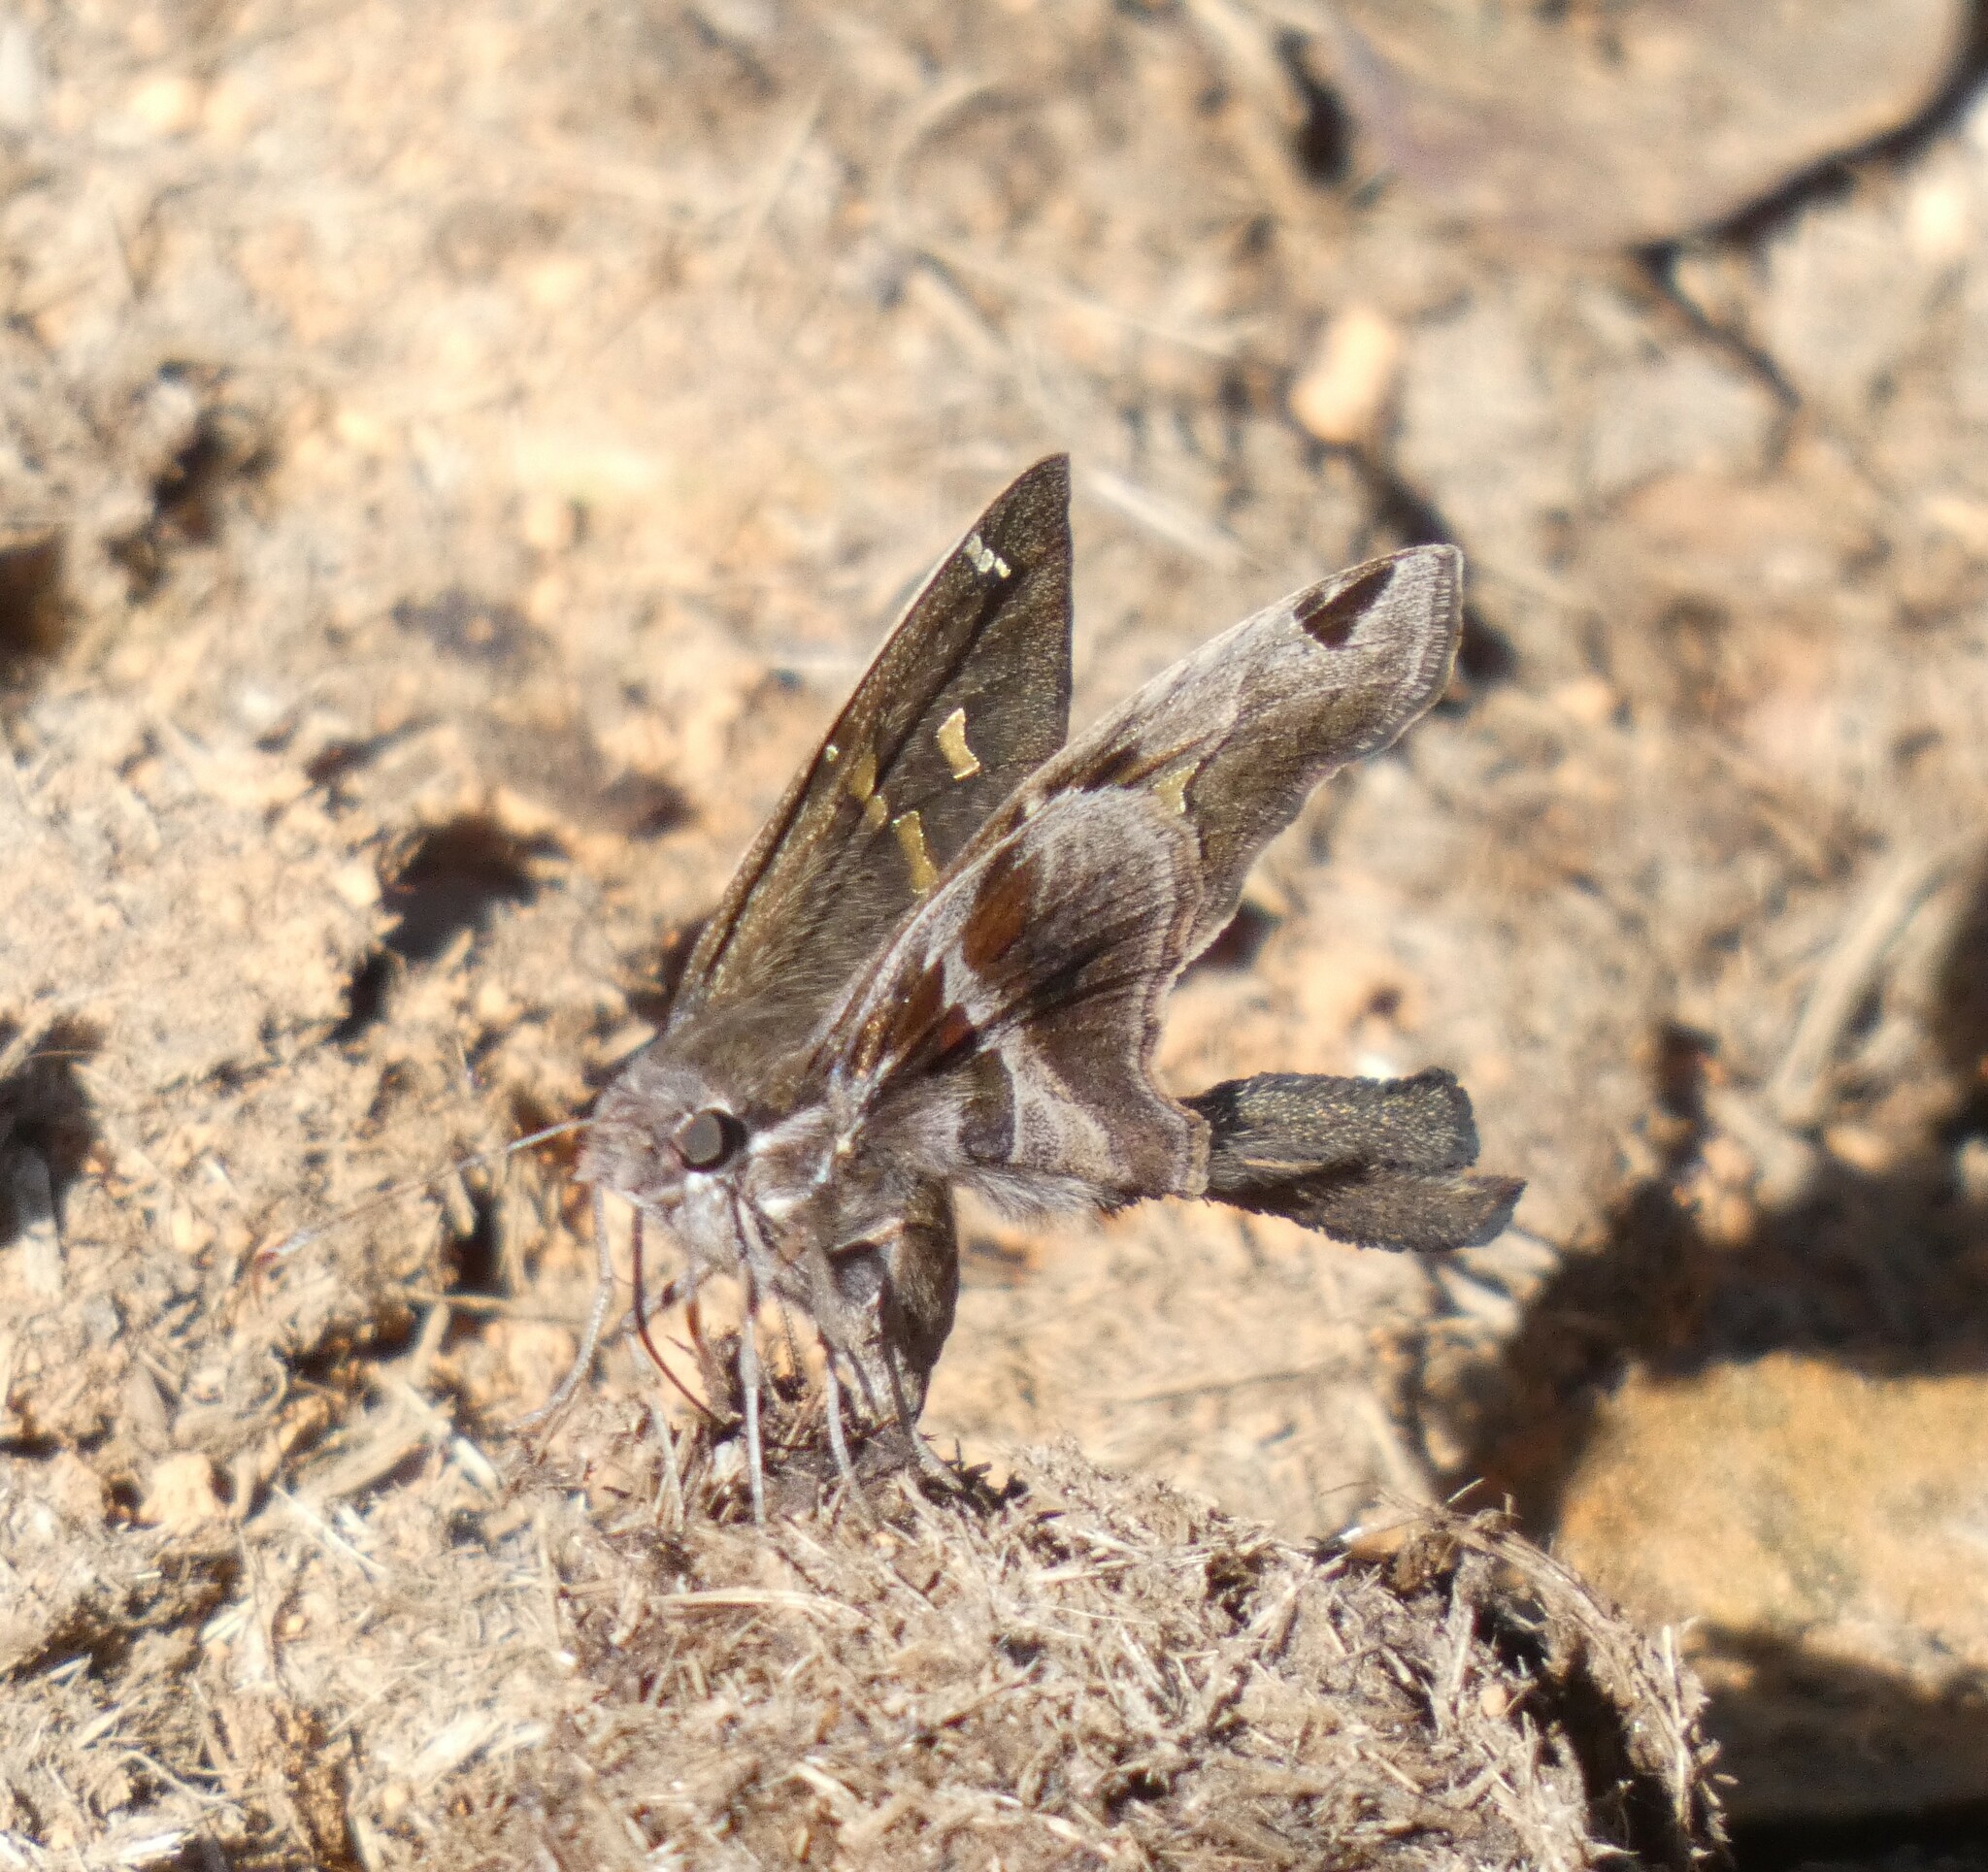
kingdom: Animalia
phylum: Arthropoda
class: Insecta
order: Lepidoptera
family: Hesperiidae
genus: Chioides
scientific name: Chioides catillus
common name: Silverbanded skipper
